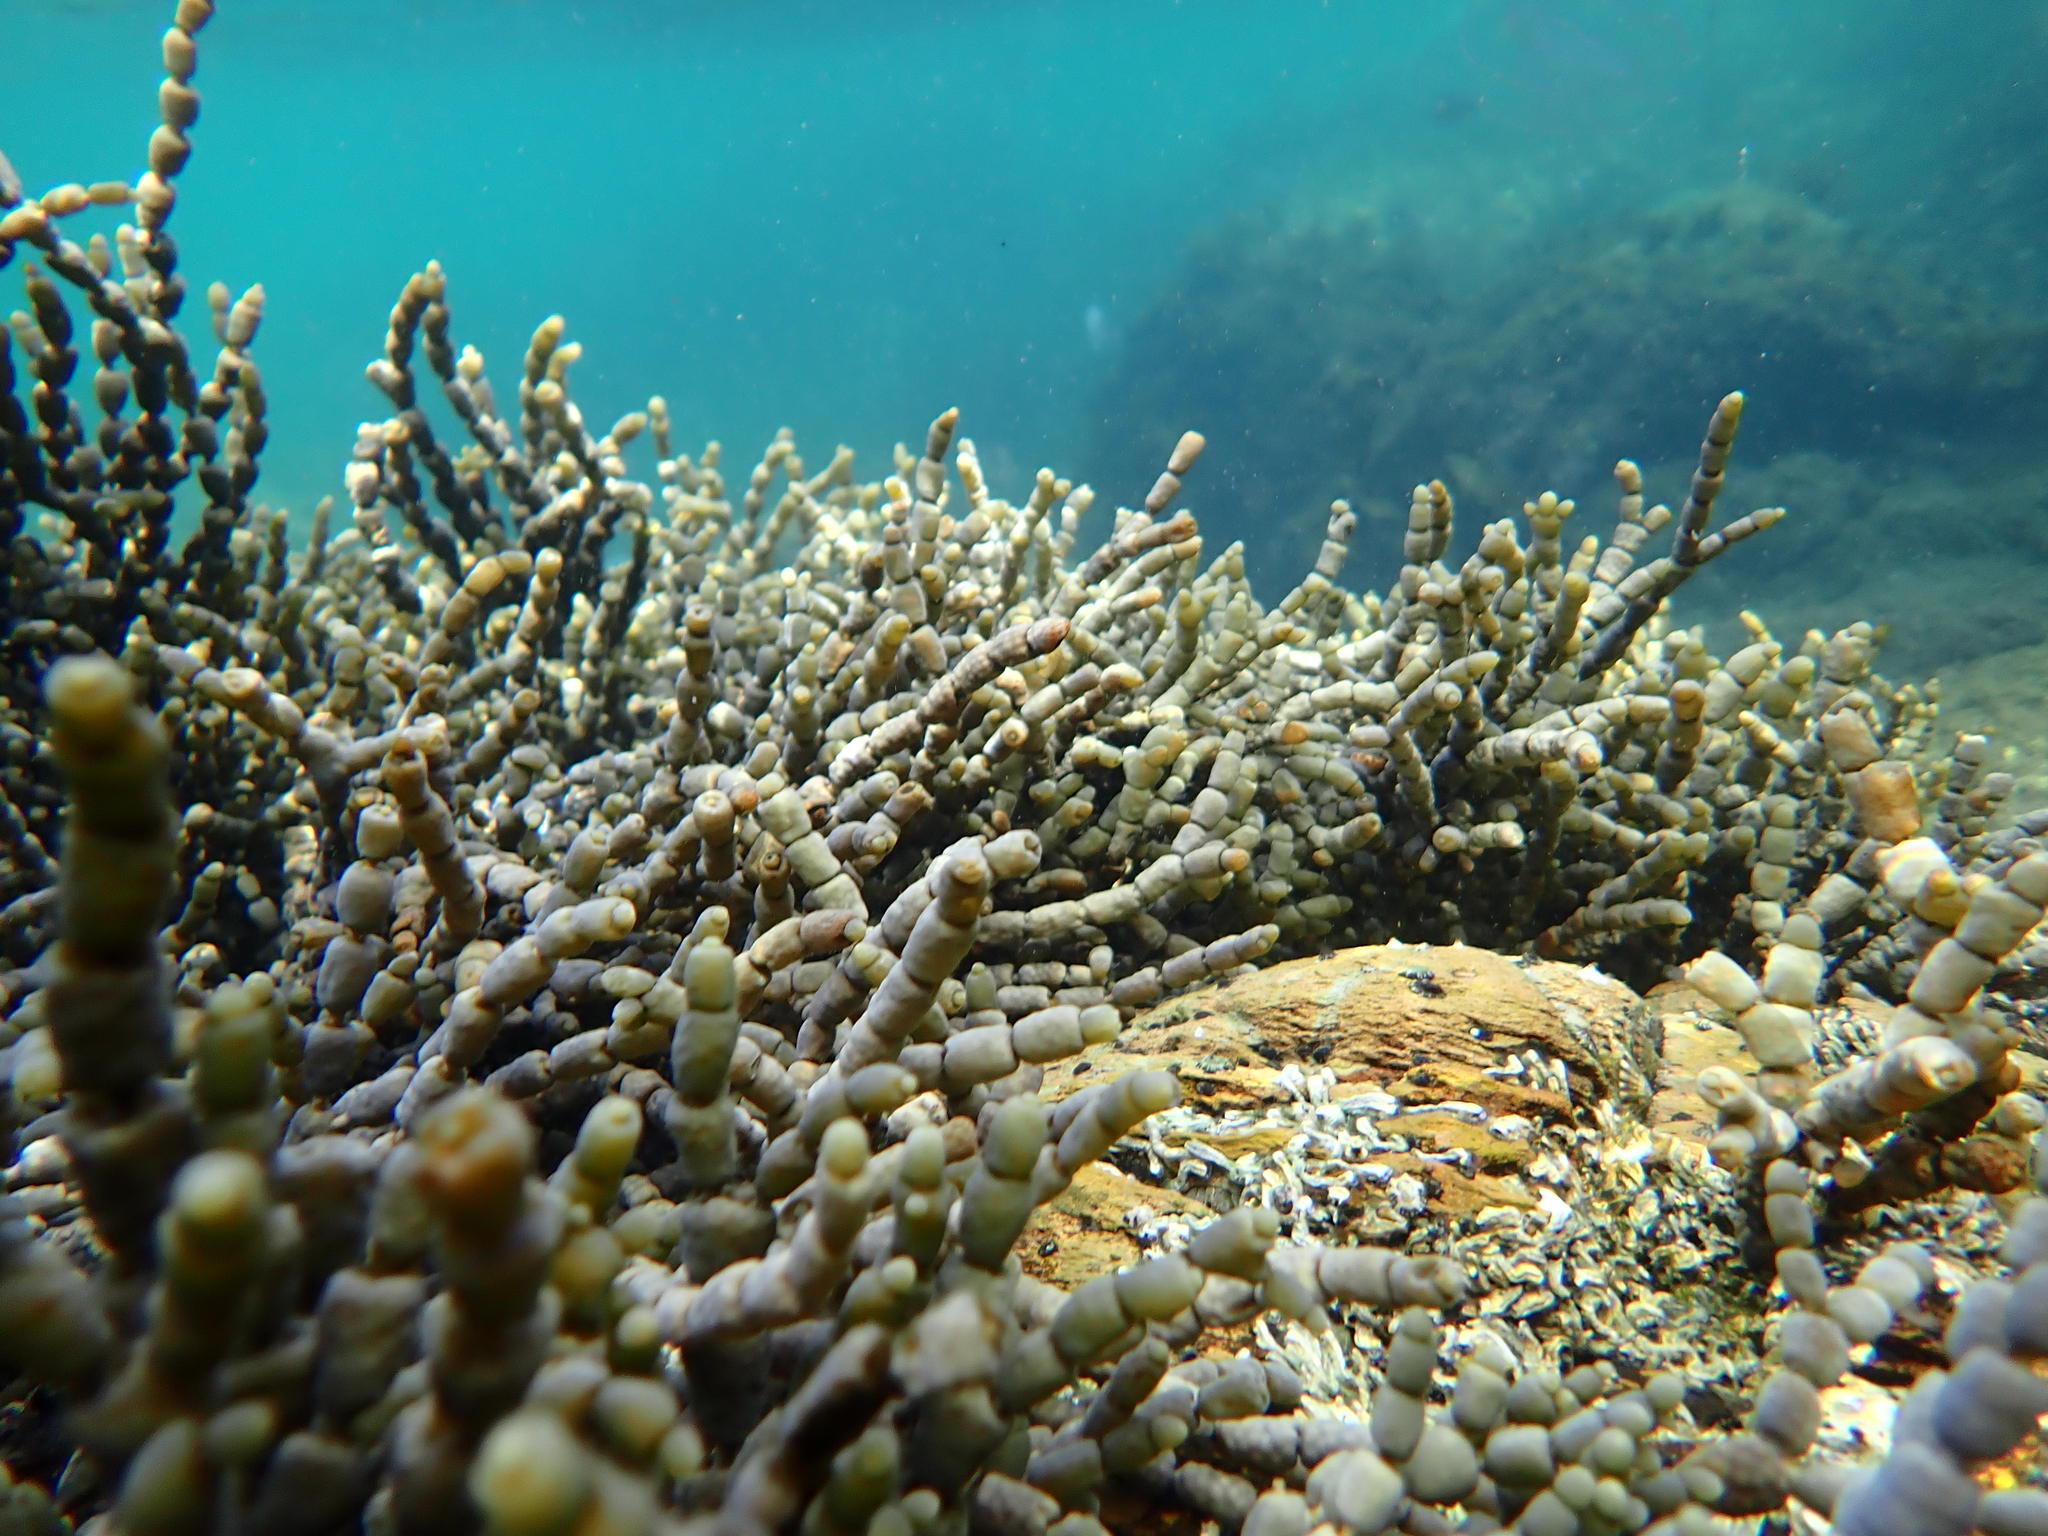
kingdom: Chromista
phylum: Ochrophyta
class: Phaeophyceae
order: Fucales
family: Hormosiraceae
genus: Hormosira
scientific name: Hormosira banksii
